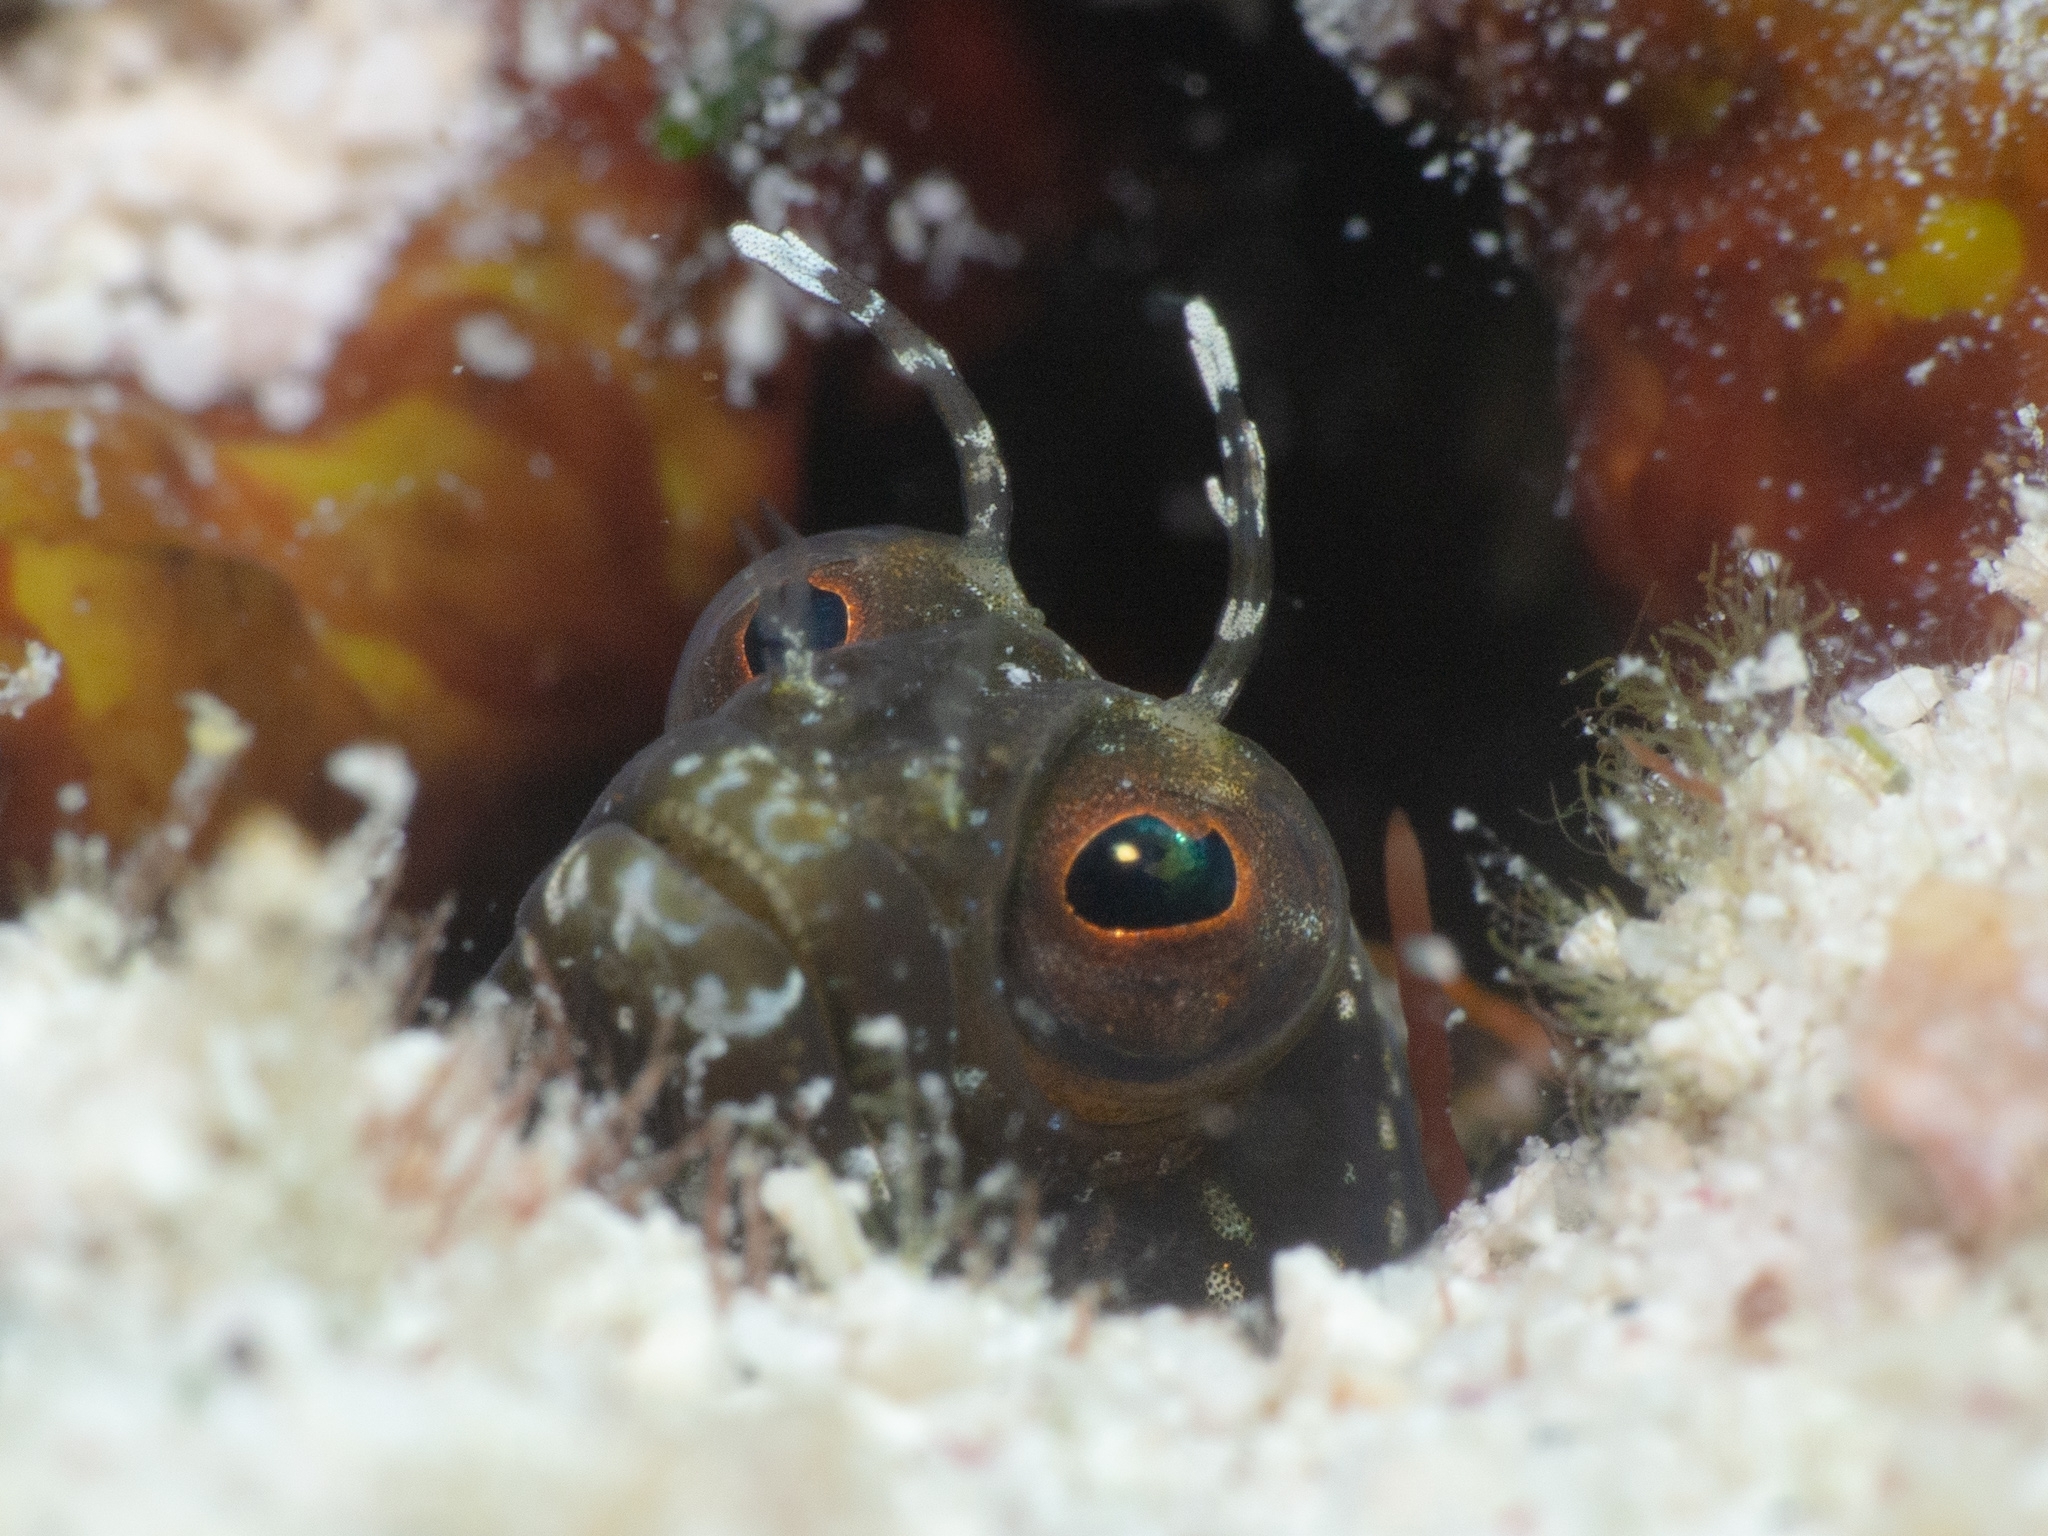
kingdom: Animalia
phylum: Chordata
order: Perciformes
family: Chaenopsidae
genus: Emblemaria
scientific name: Emblemaria pandionis
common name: Sailfin blenny
